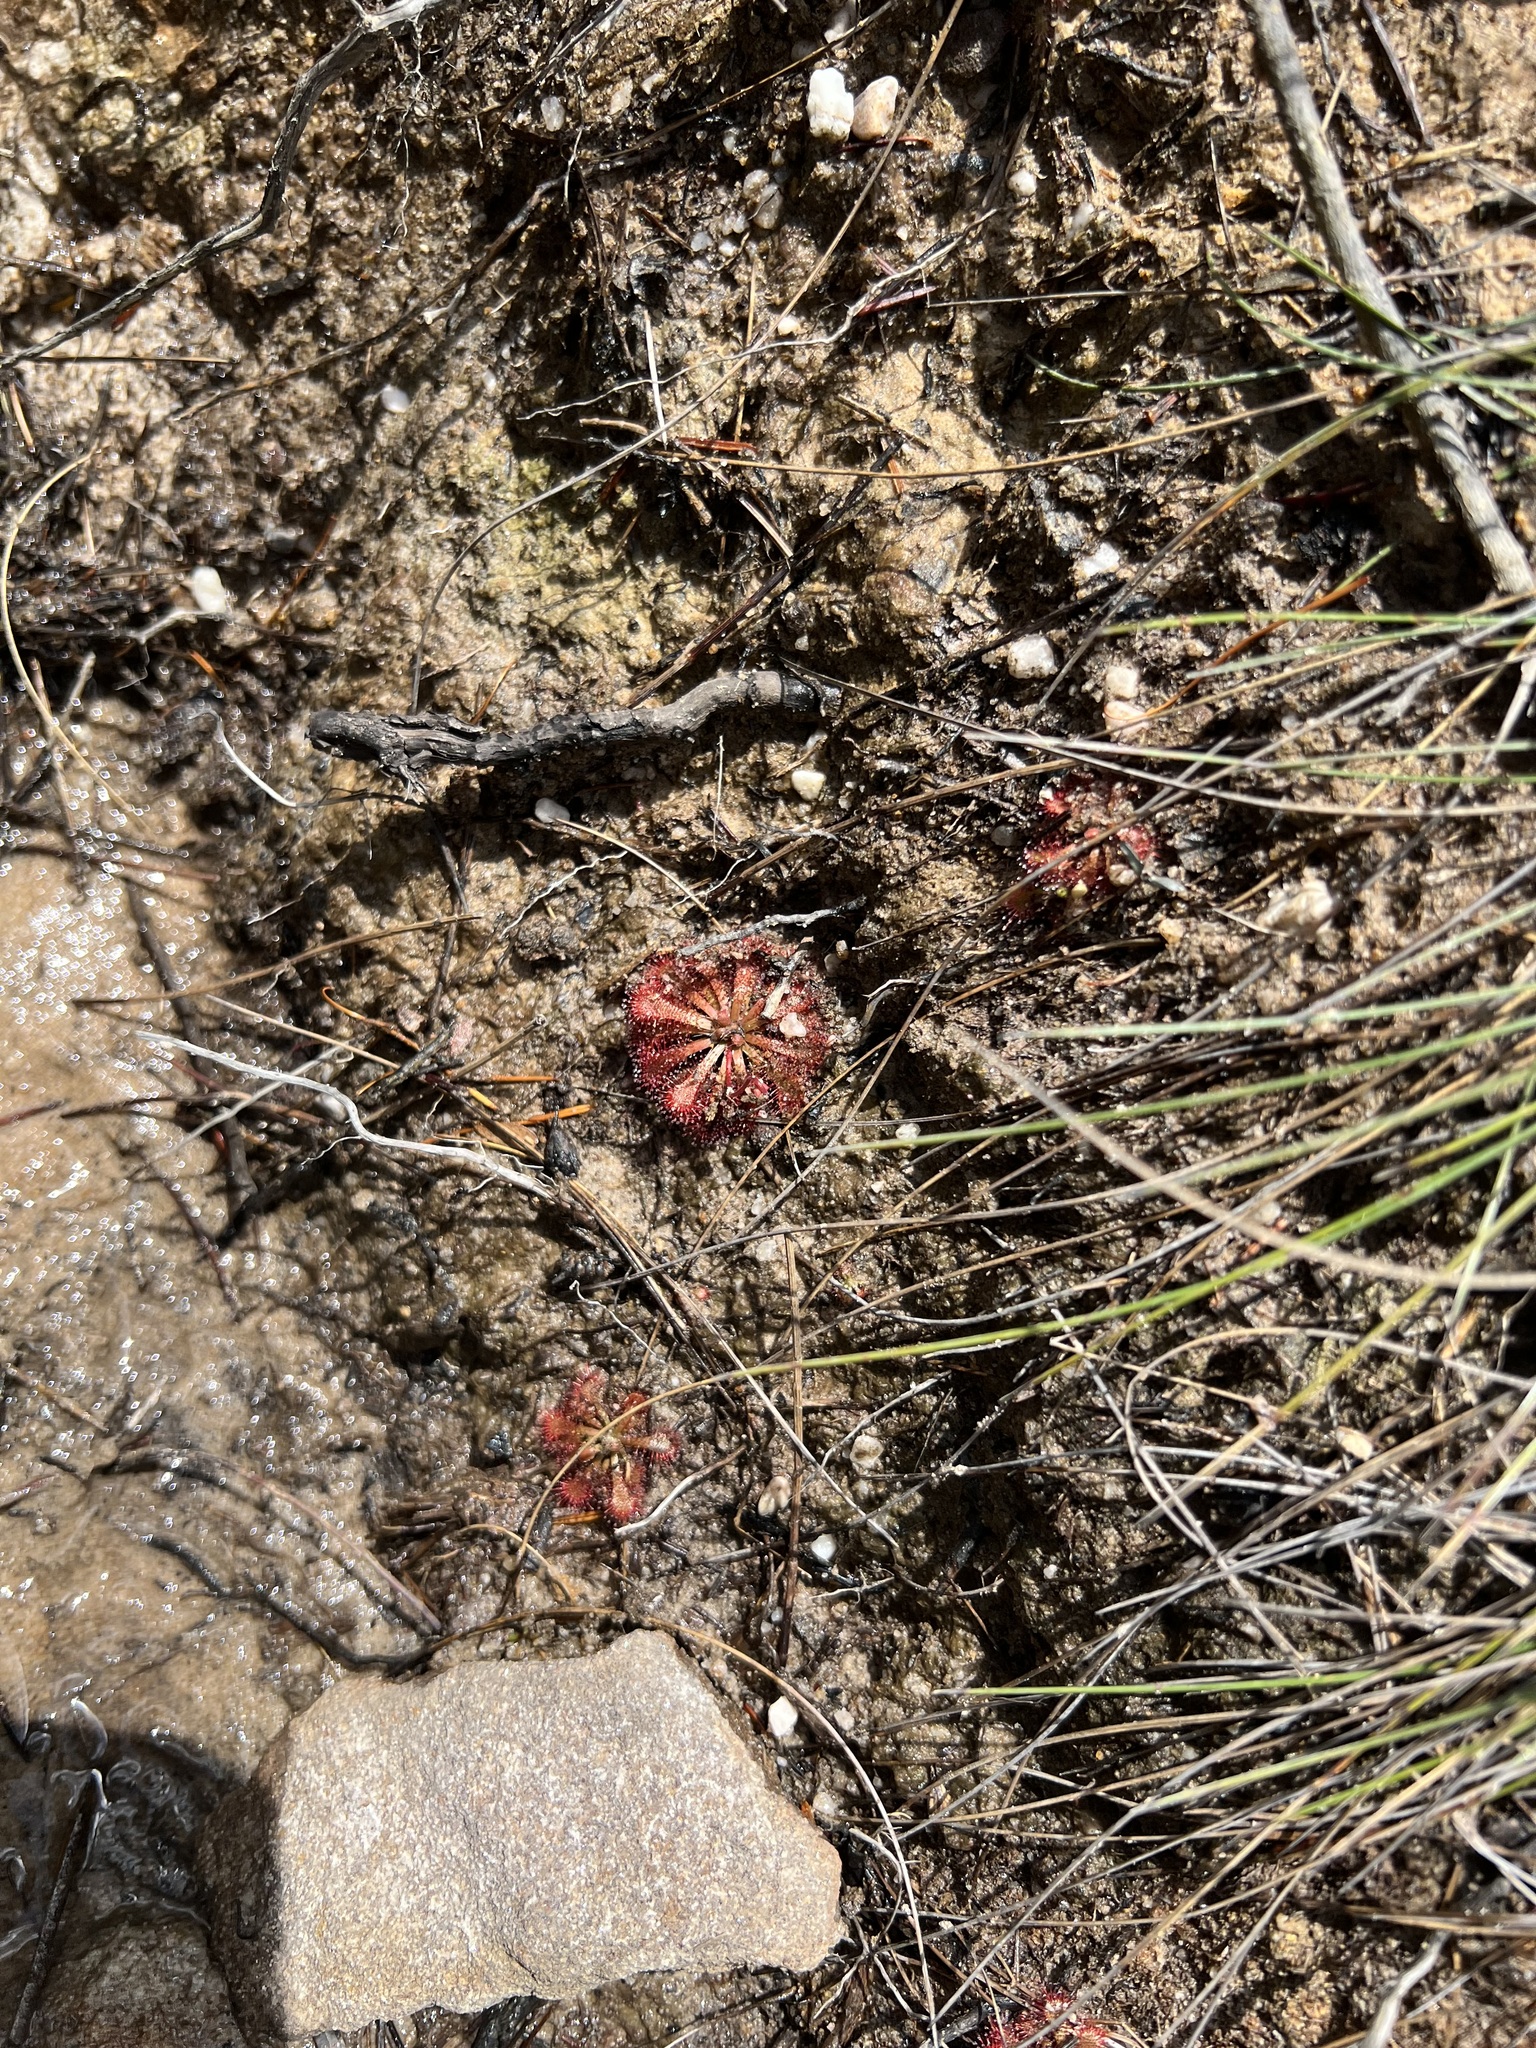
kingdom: Plantae
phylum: Tracheophyta
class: Magnoliopsida
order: Caryophyllales
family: Droseraceae
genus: Drosera
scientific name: Drosera spatulata
